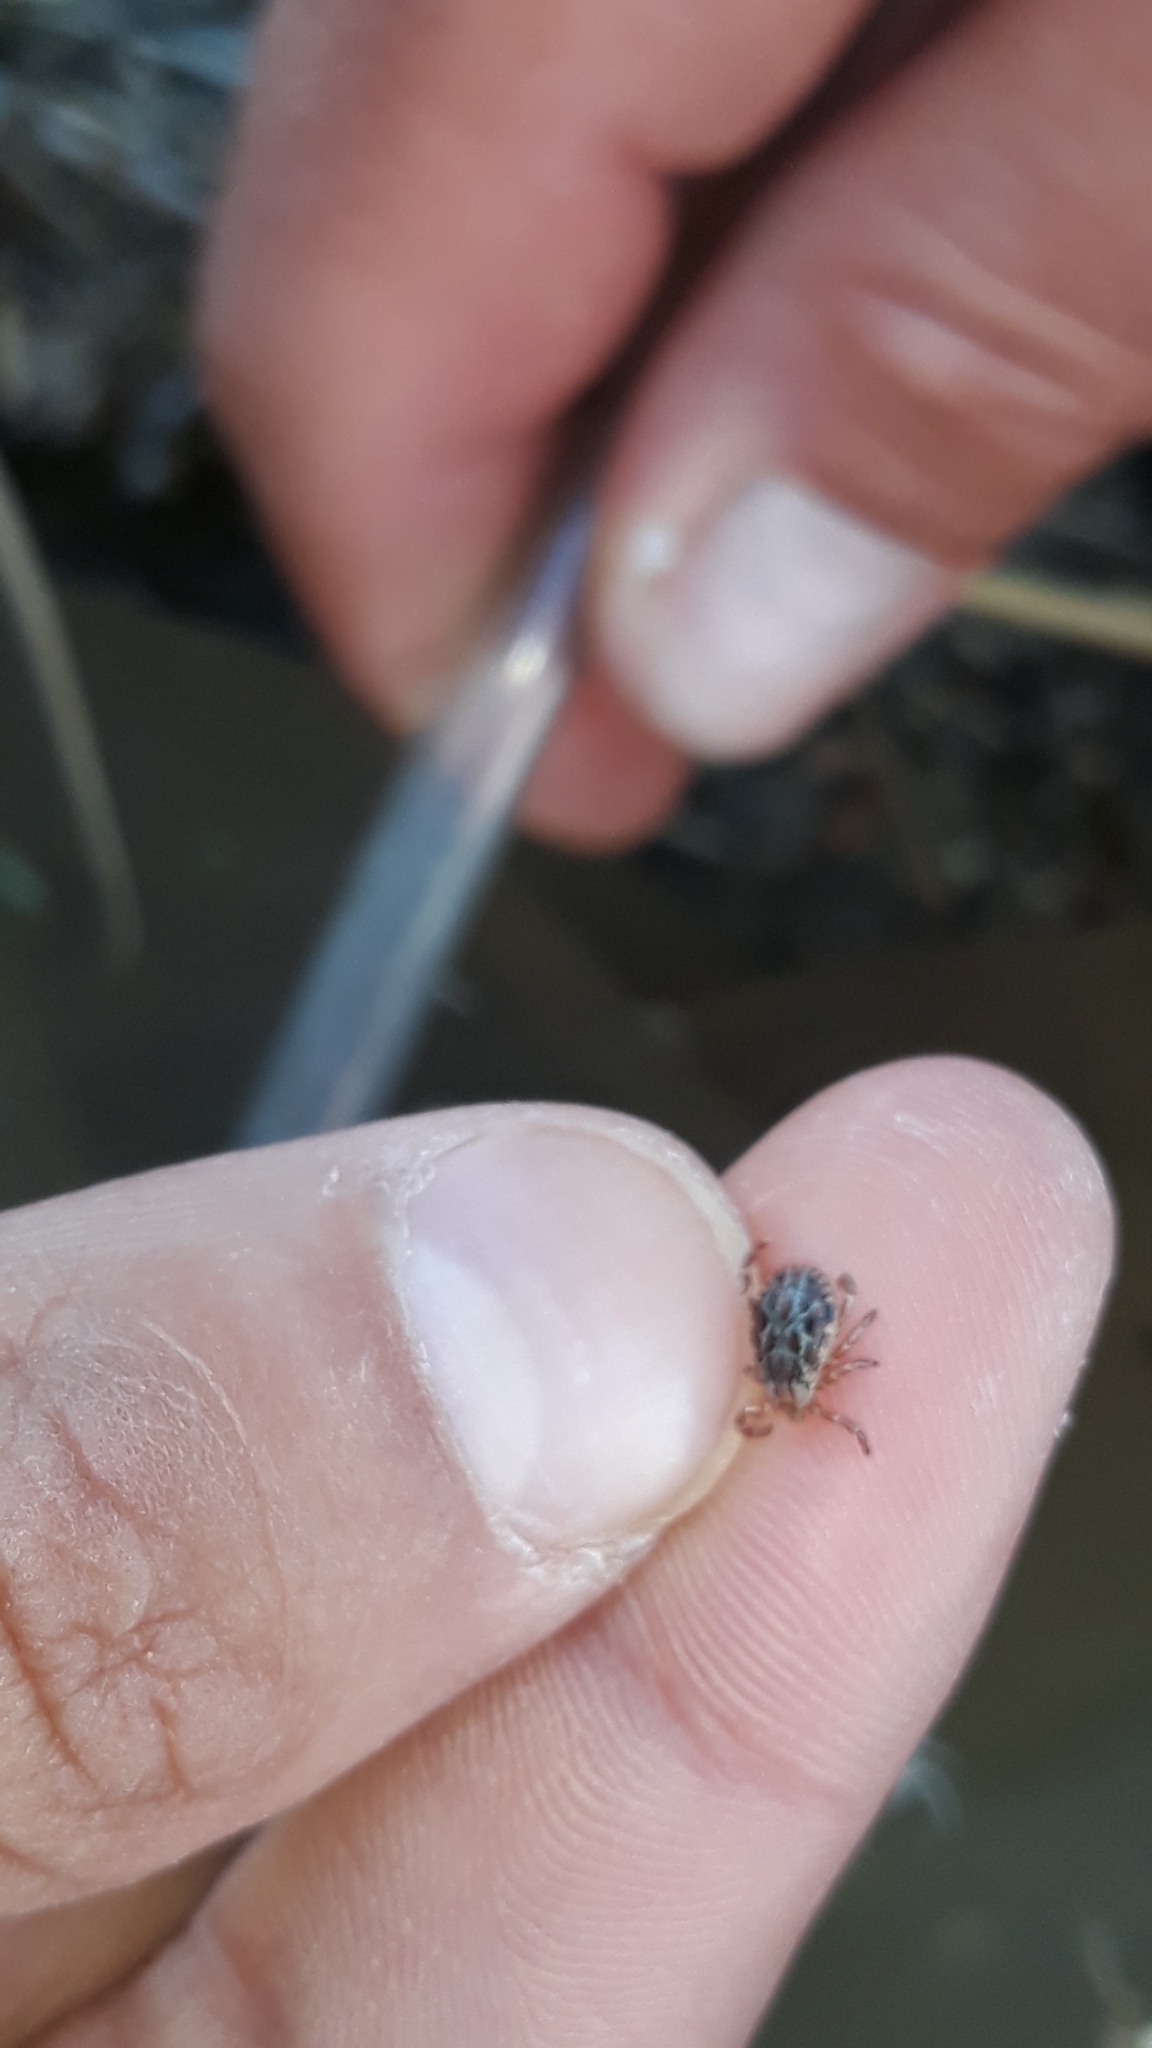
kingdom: Animalia
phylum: Arthropoda
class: Arachnida
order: Ixodida
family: Ixodidae
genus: Dermacentor
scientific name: Dermacentor
